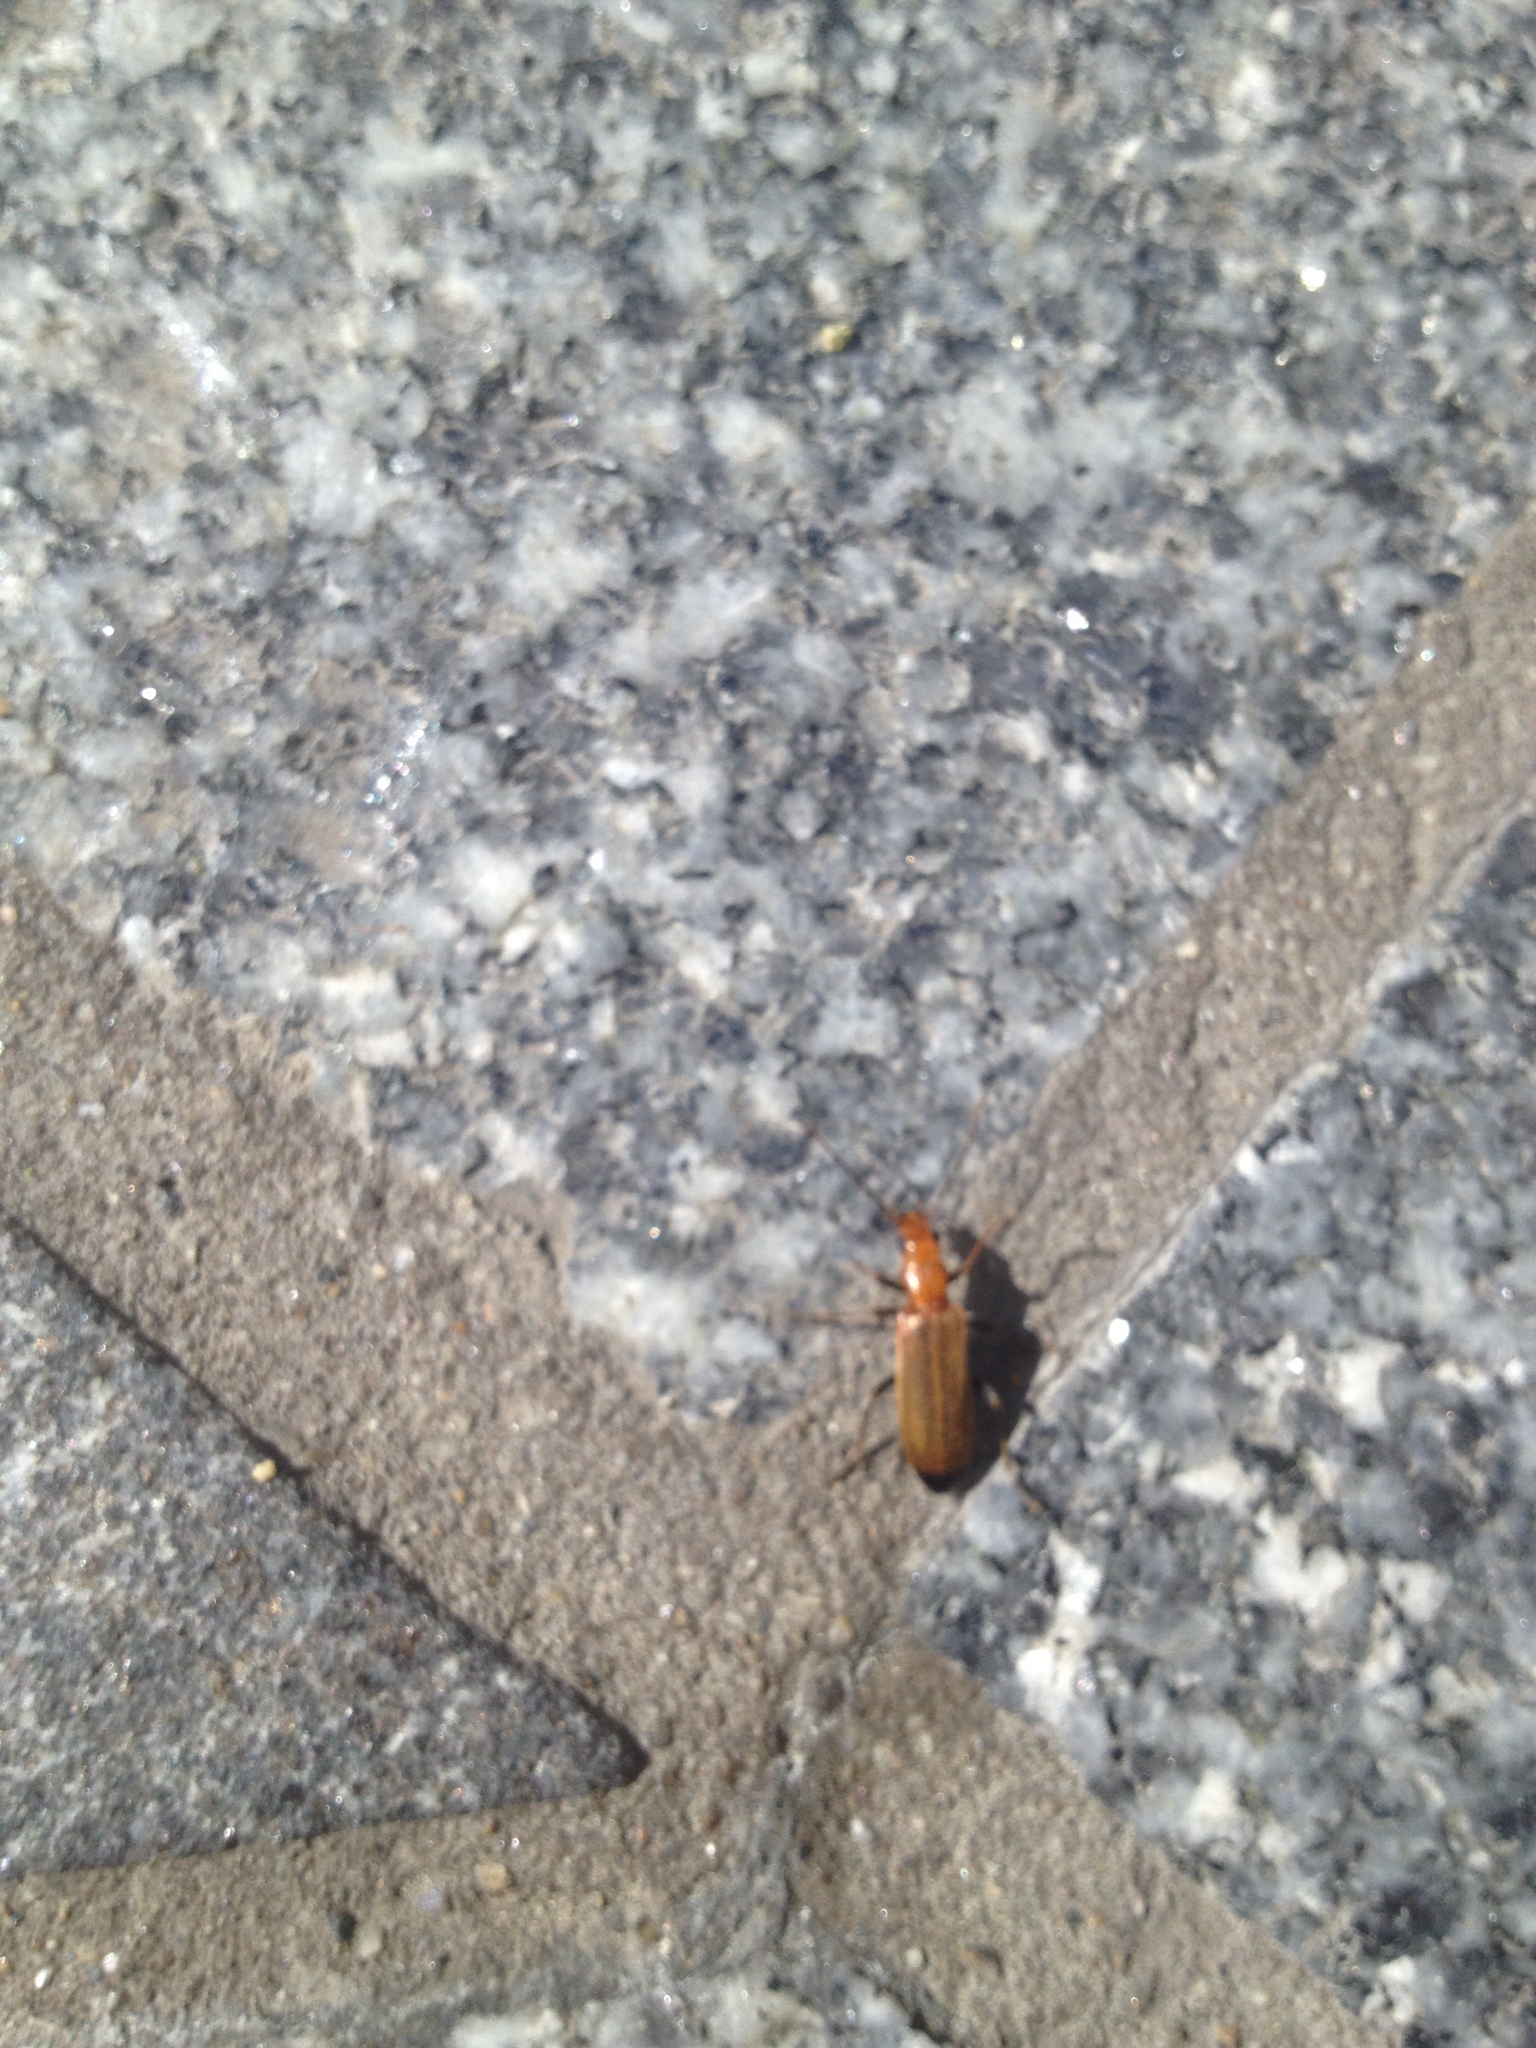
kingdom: Animalia
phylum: Arthropoda
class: Insecta
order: Coleoptera
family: Oedemeridae
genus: Nacerdes
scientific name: Nacerdes melanura
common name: Wharf borer
